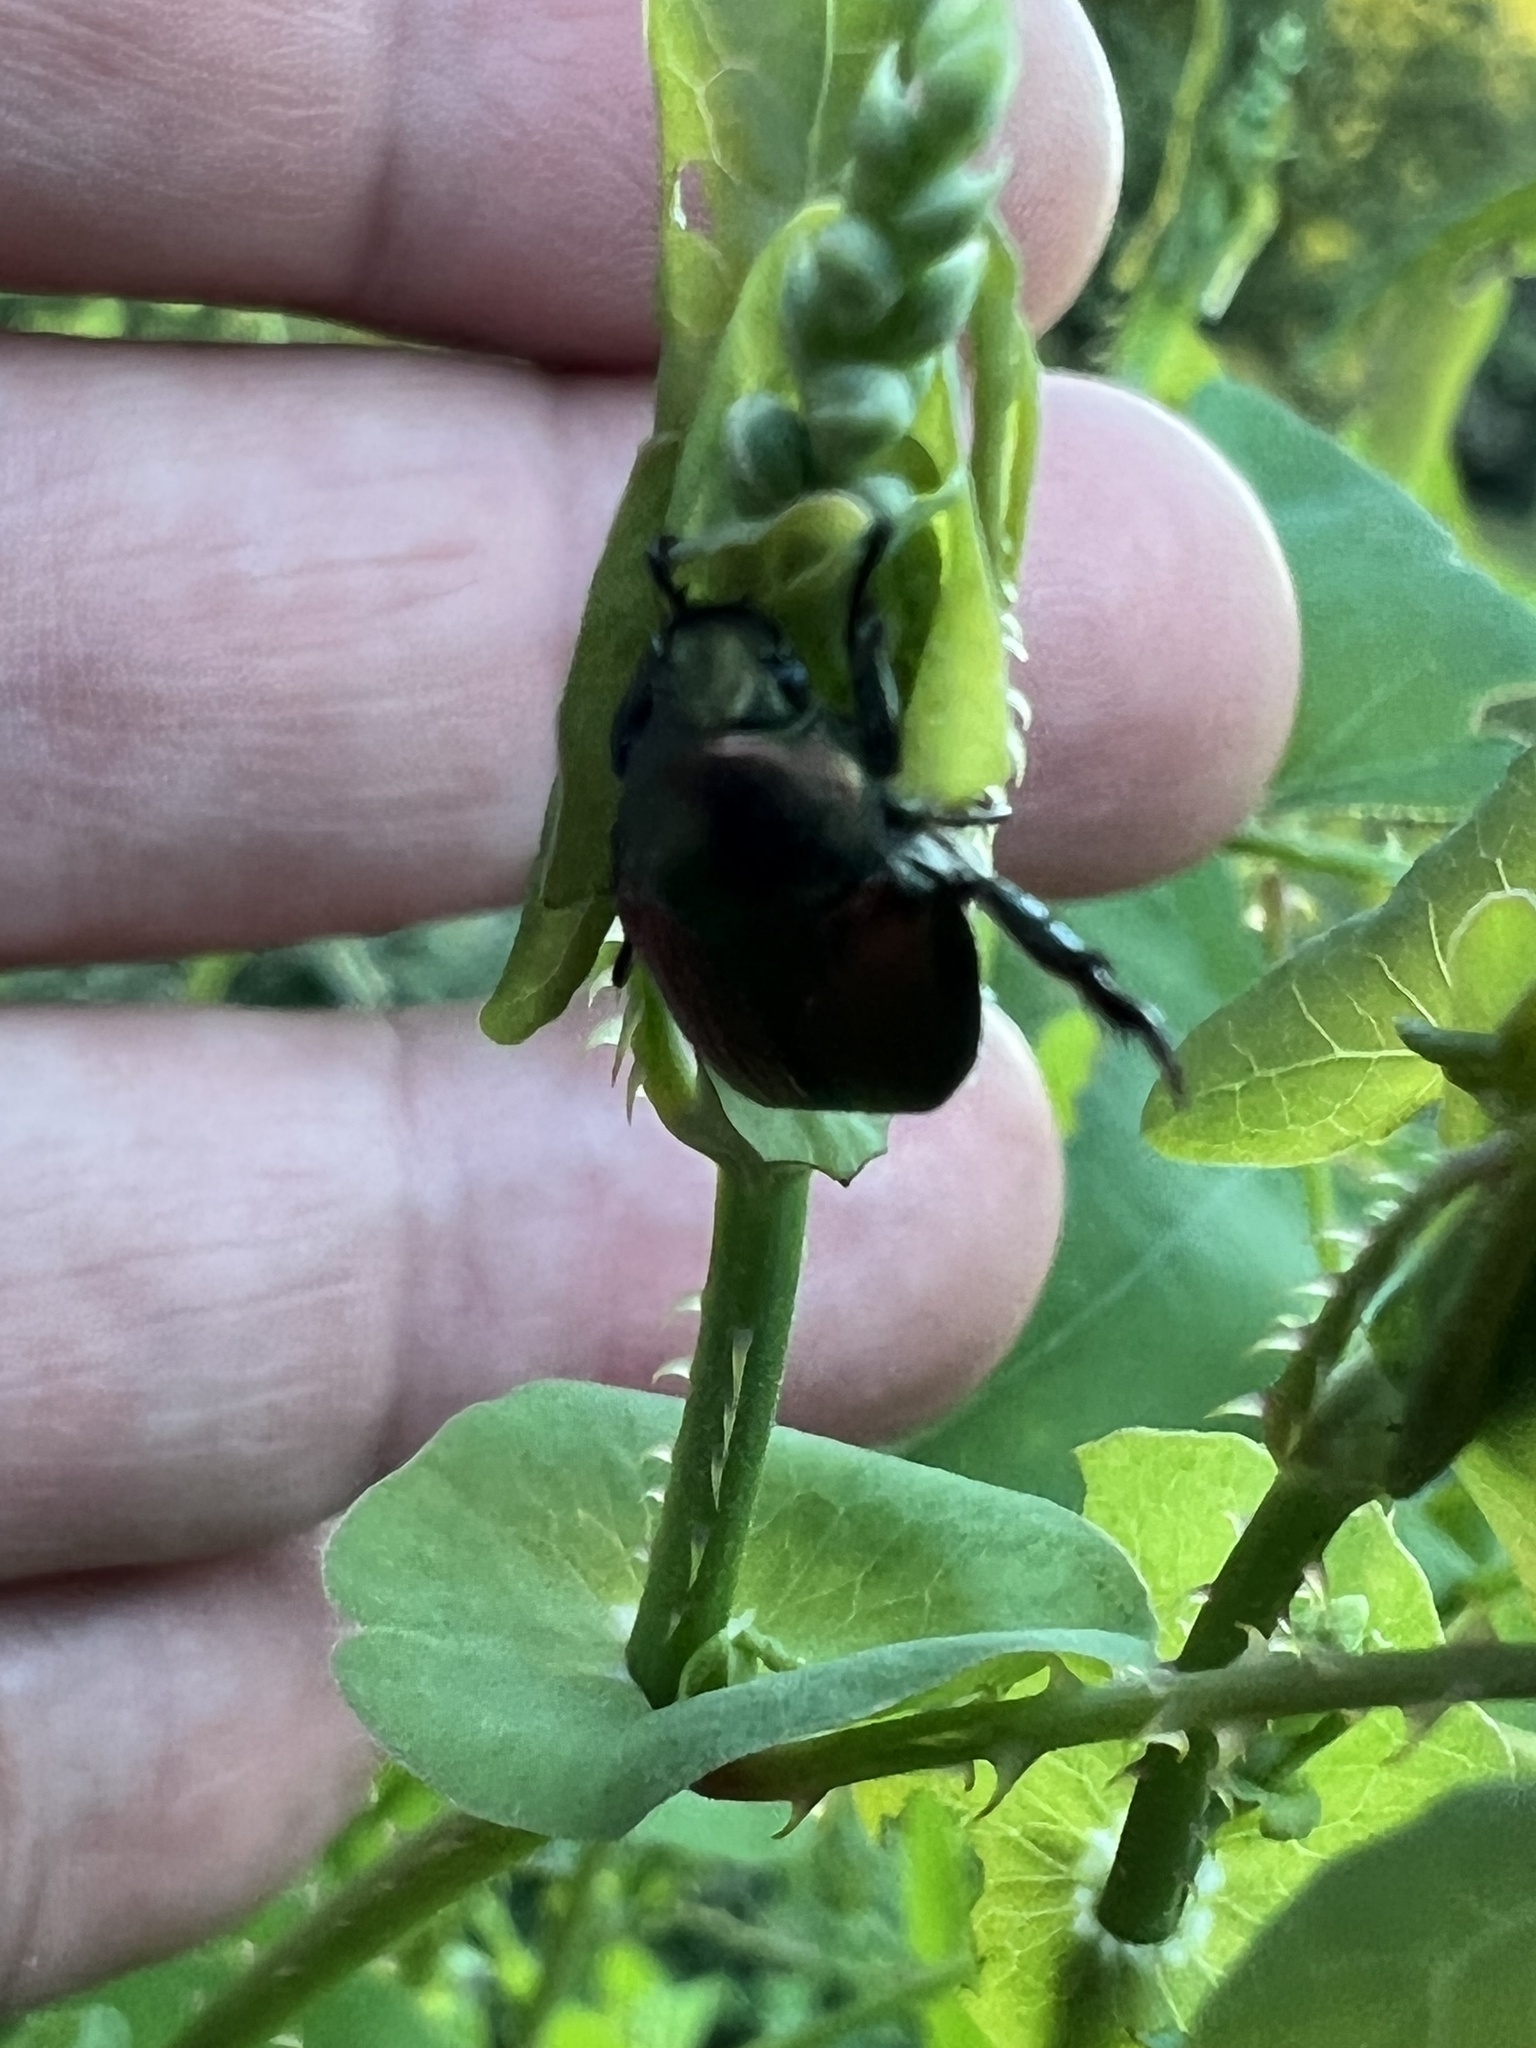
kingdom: Animalia
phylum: Arthropoda
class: Insecta
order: Coleoptera
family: Scarabaeidae
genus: Popillia
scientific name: Popillia japonica
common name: Japanese beetle
